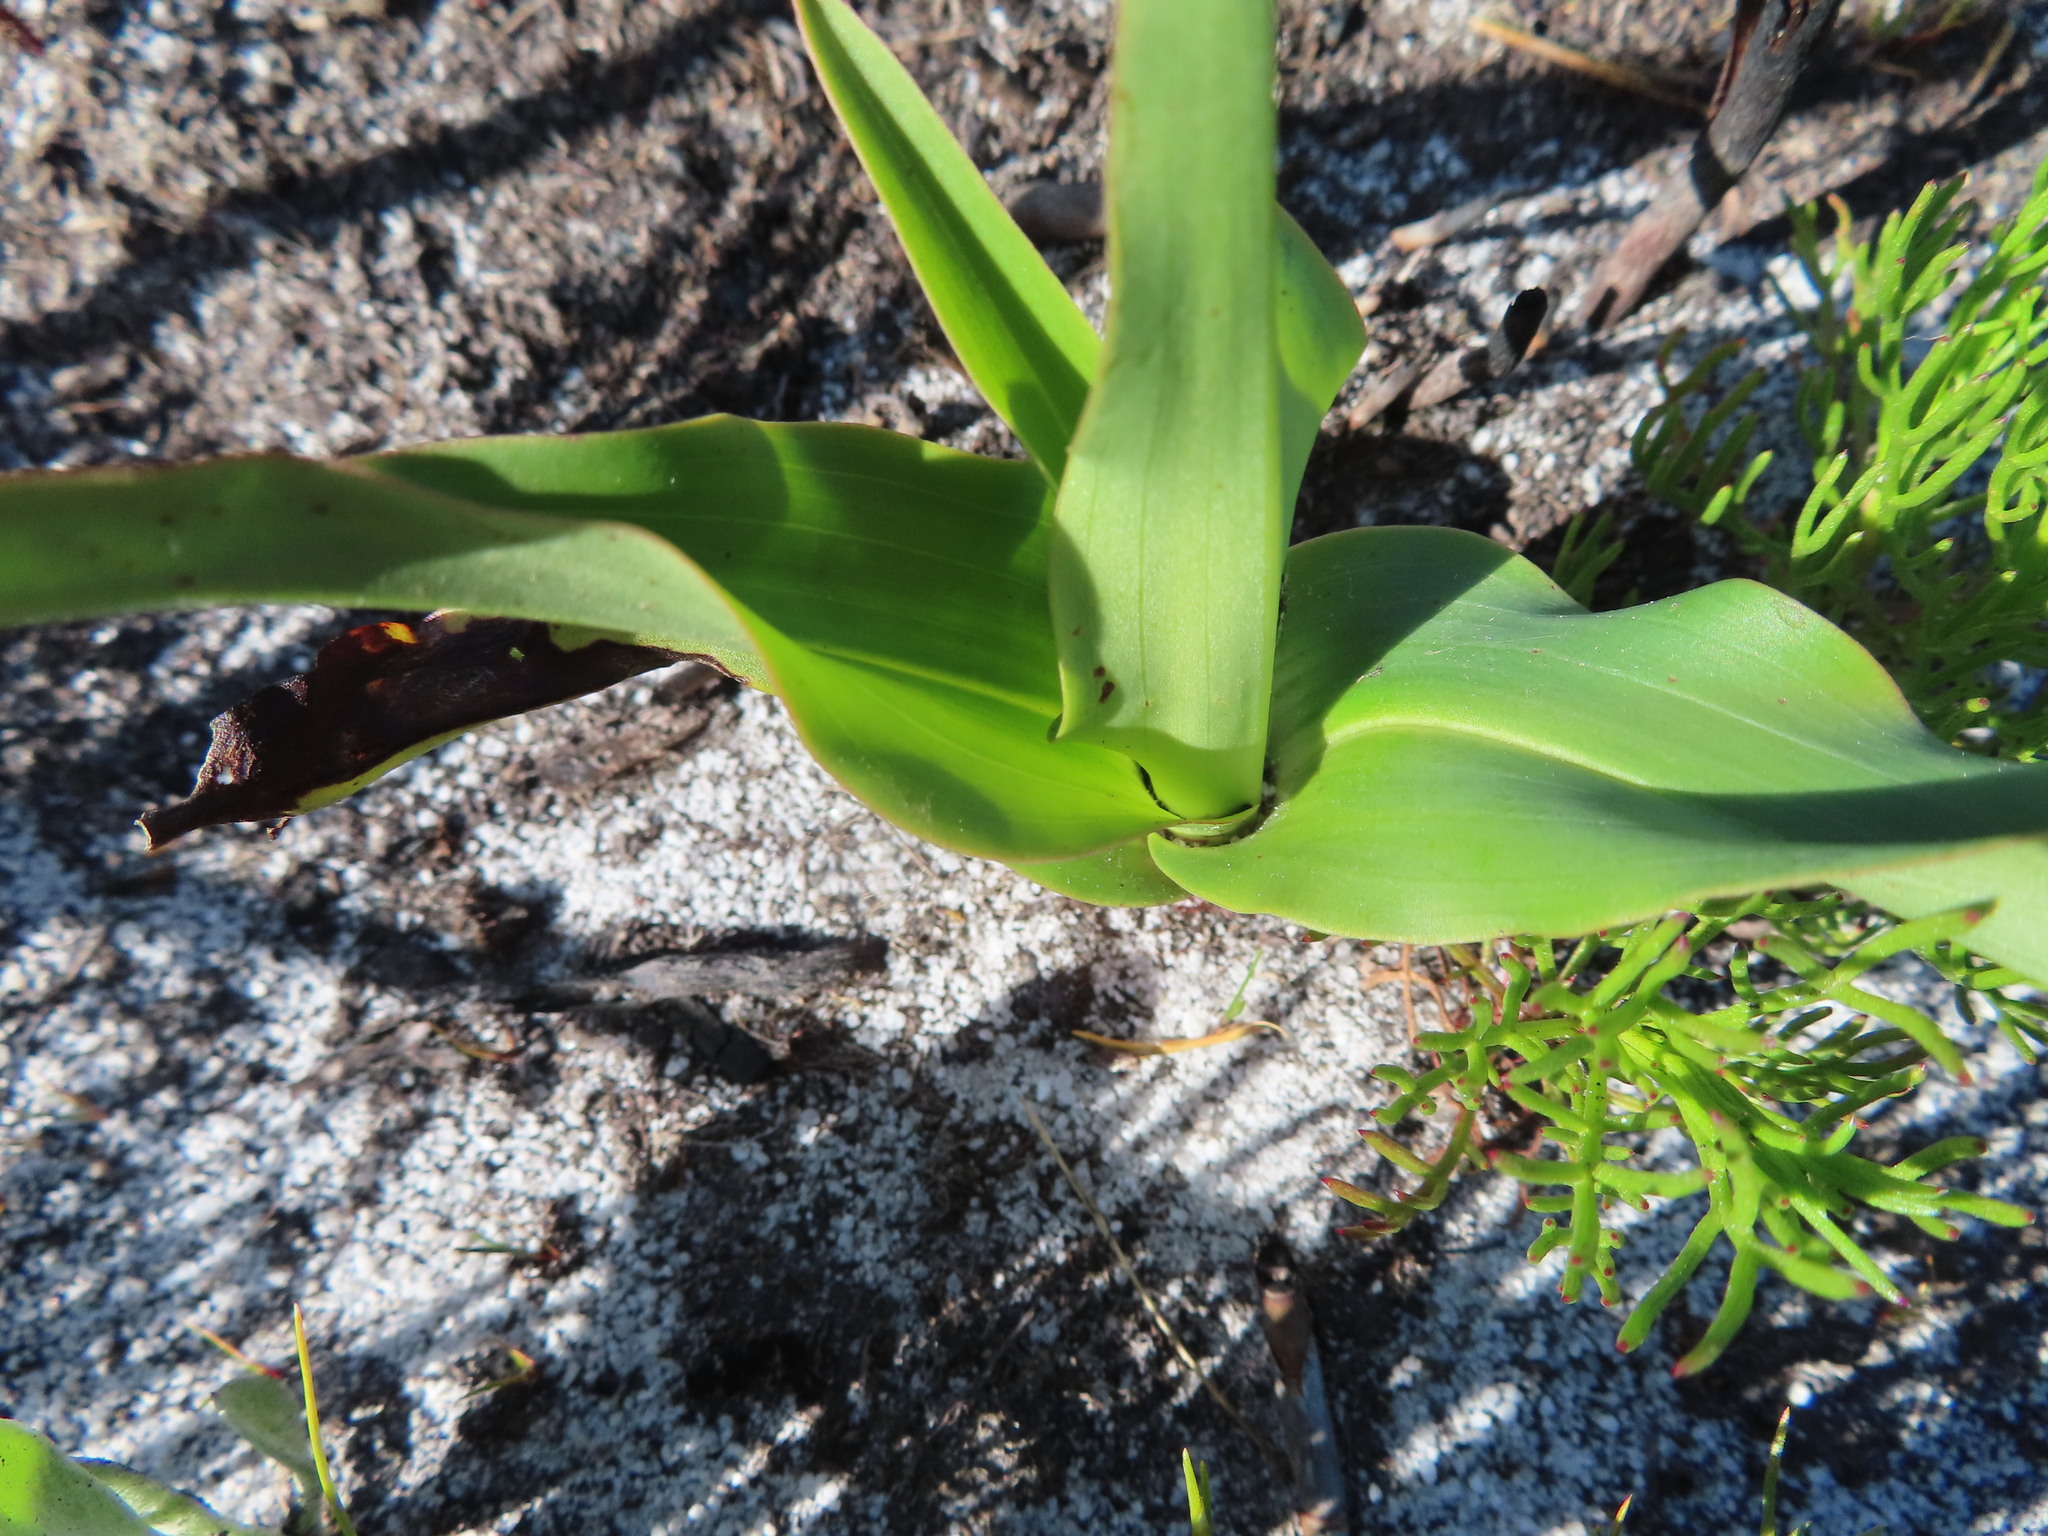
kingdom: Plantae
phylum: Tracheophyta
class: Liliopsida
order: Asparagales
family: Orchidaceae
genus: Disa
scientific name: Disa cornuta
